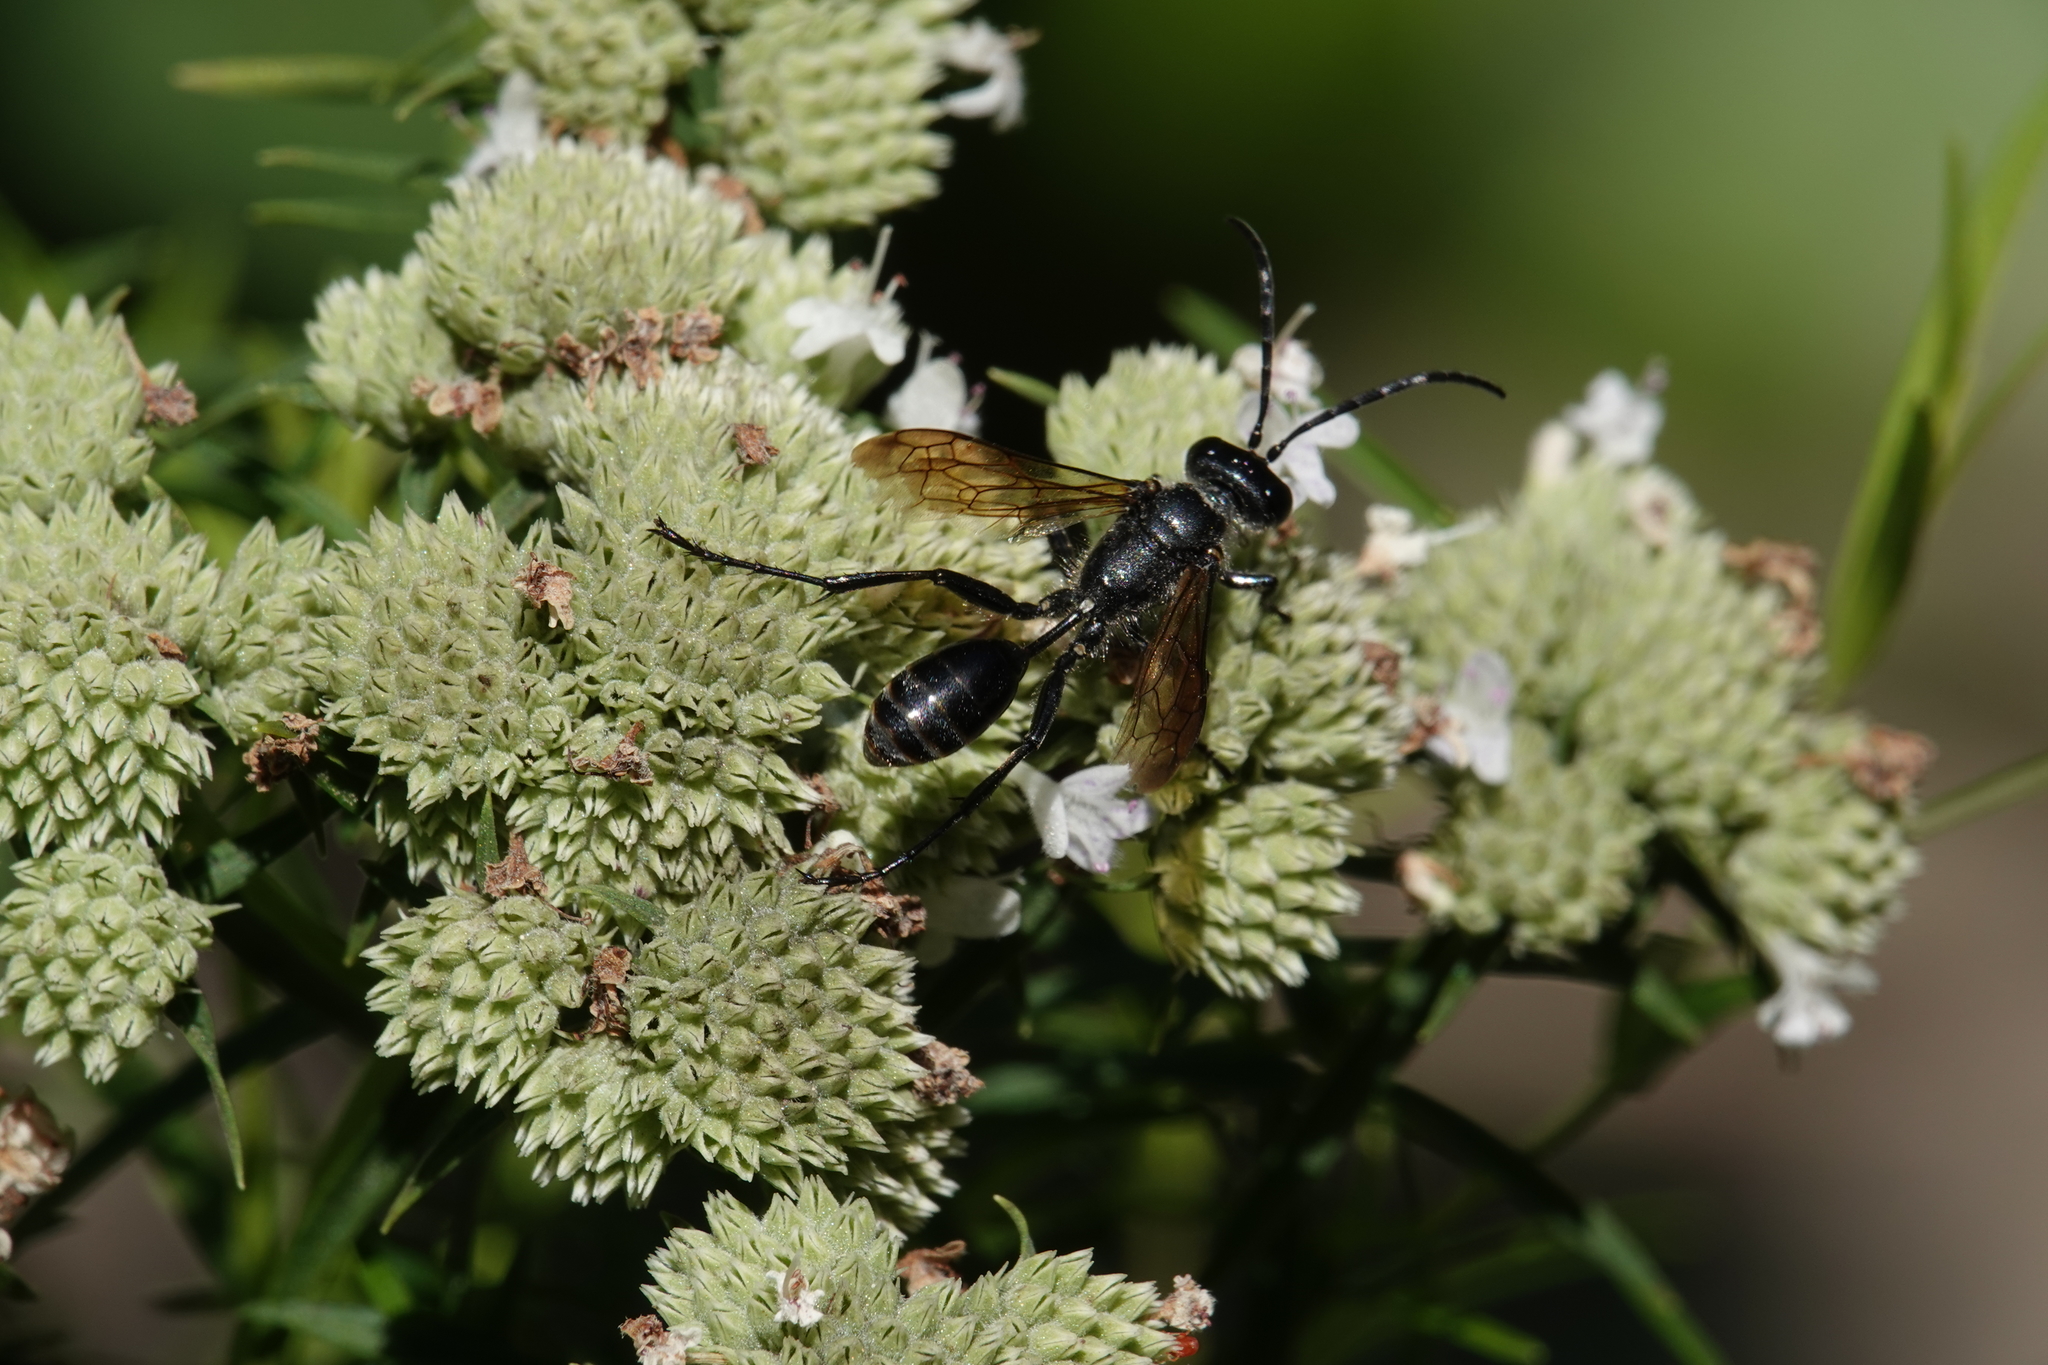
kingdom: Animalia
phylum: Arthropoda
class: Insecta
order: Hymenoptera
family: Sphecidae
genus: Isodontia
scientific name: Isodontia mexicana
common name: Mud dauber
